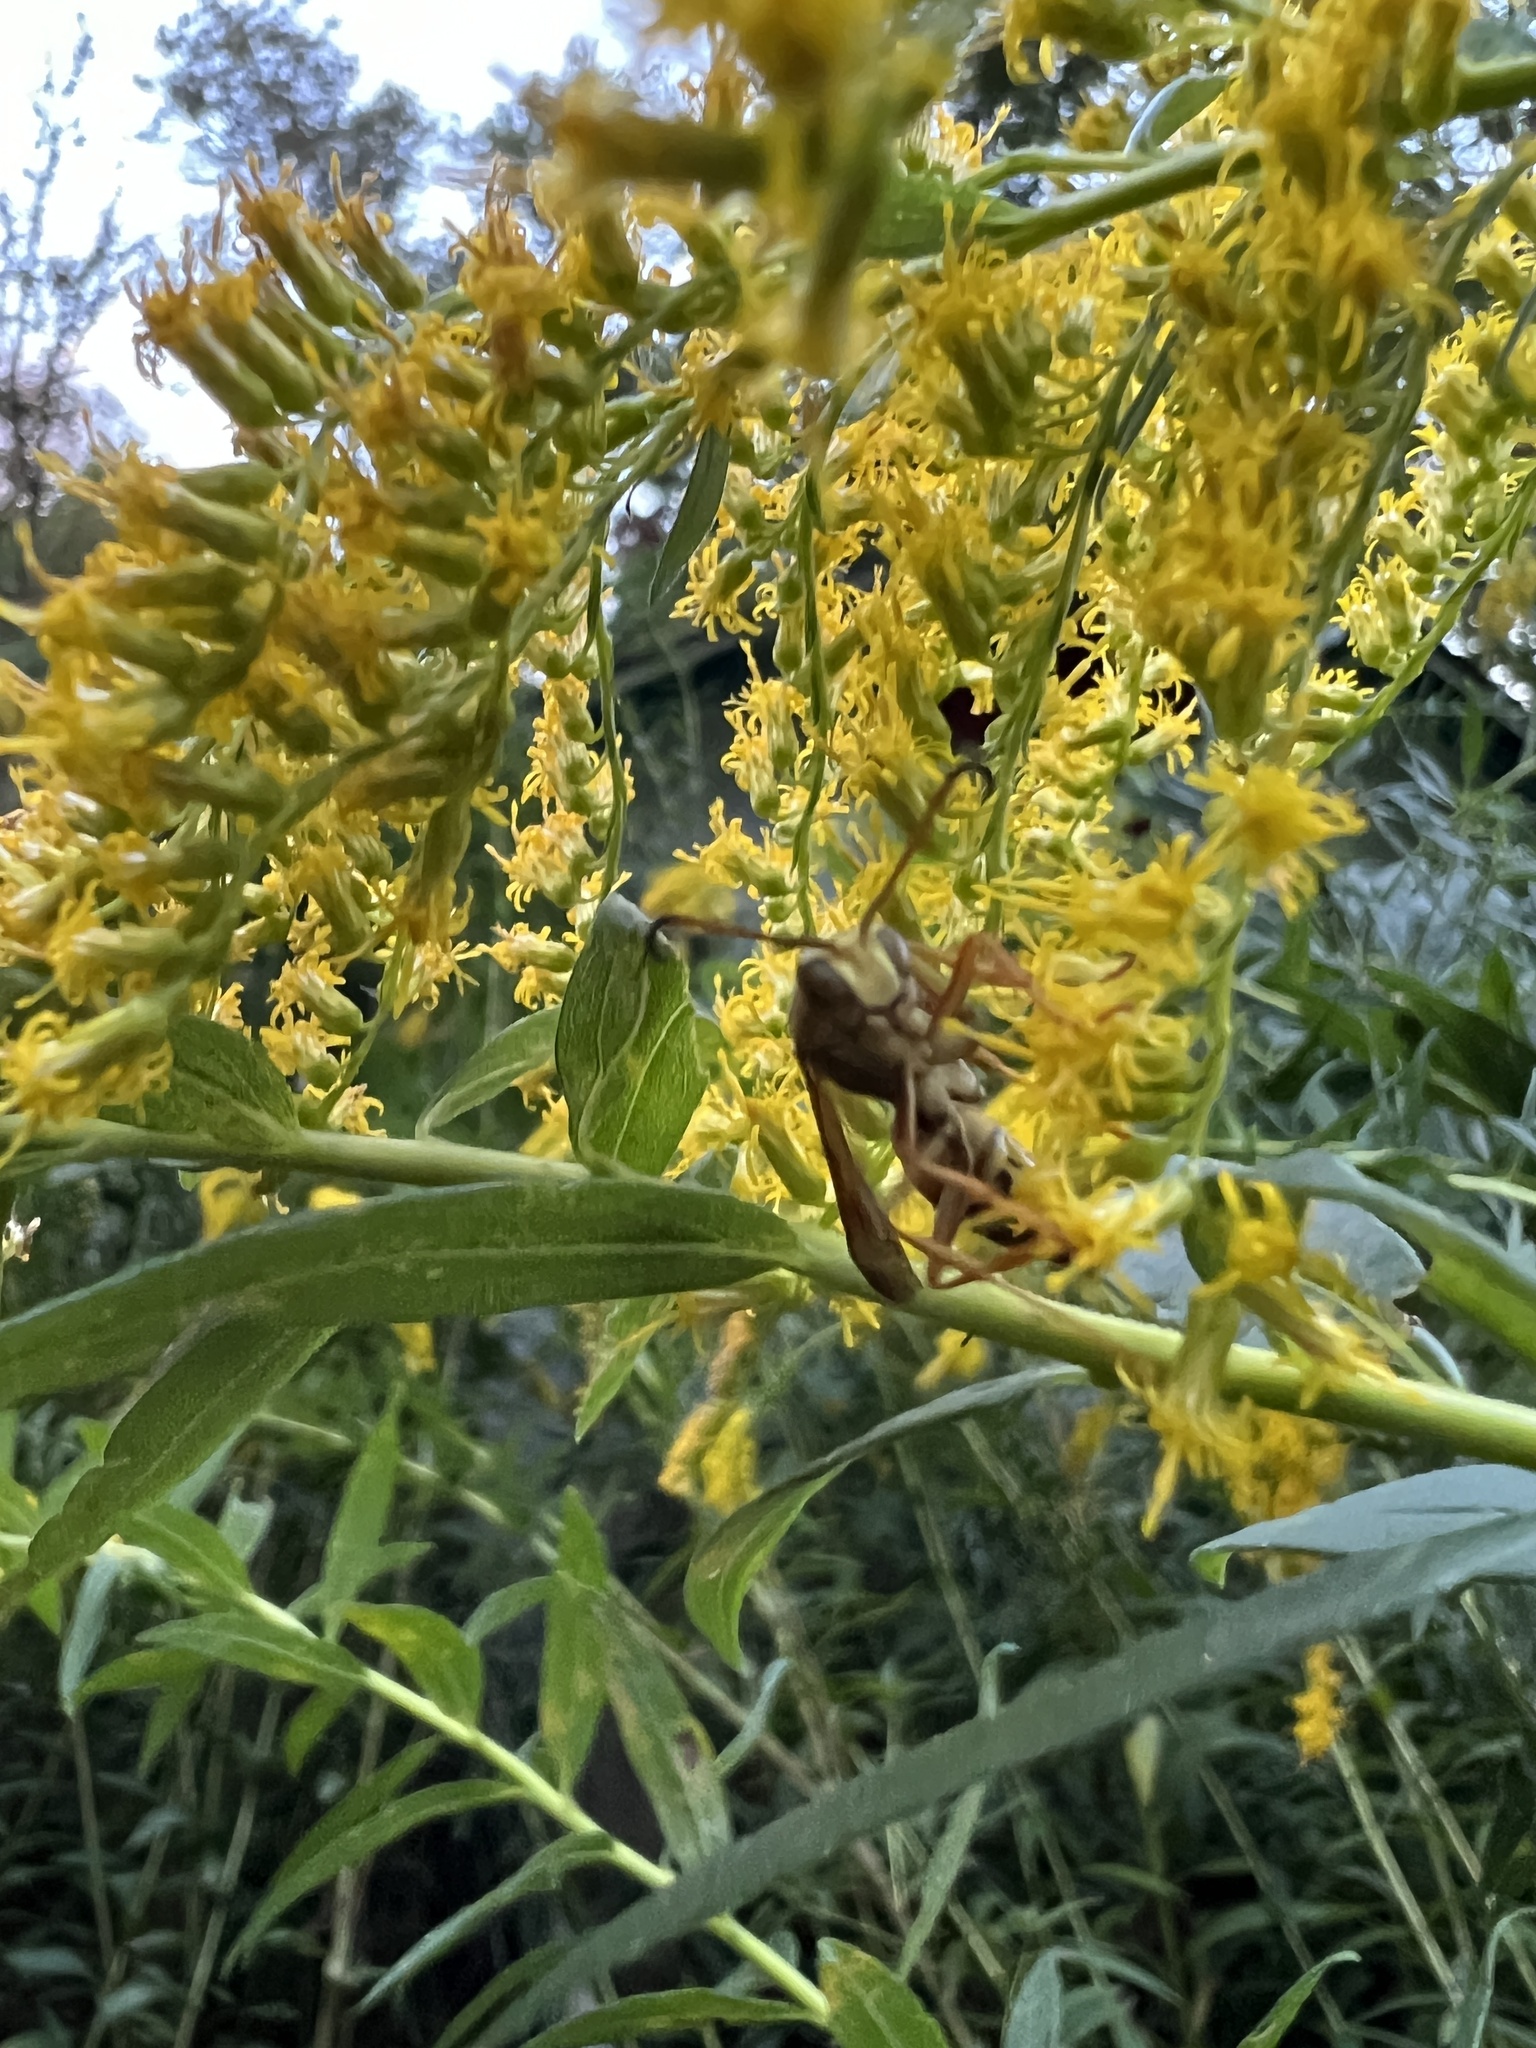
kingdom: Animalia
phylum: Arthropoda
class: Insecta
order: Hymenoptera
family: Eumenidae
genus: Polistes
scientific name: Polistes fuscatus
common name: Dark paper wasp
